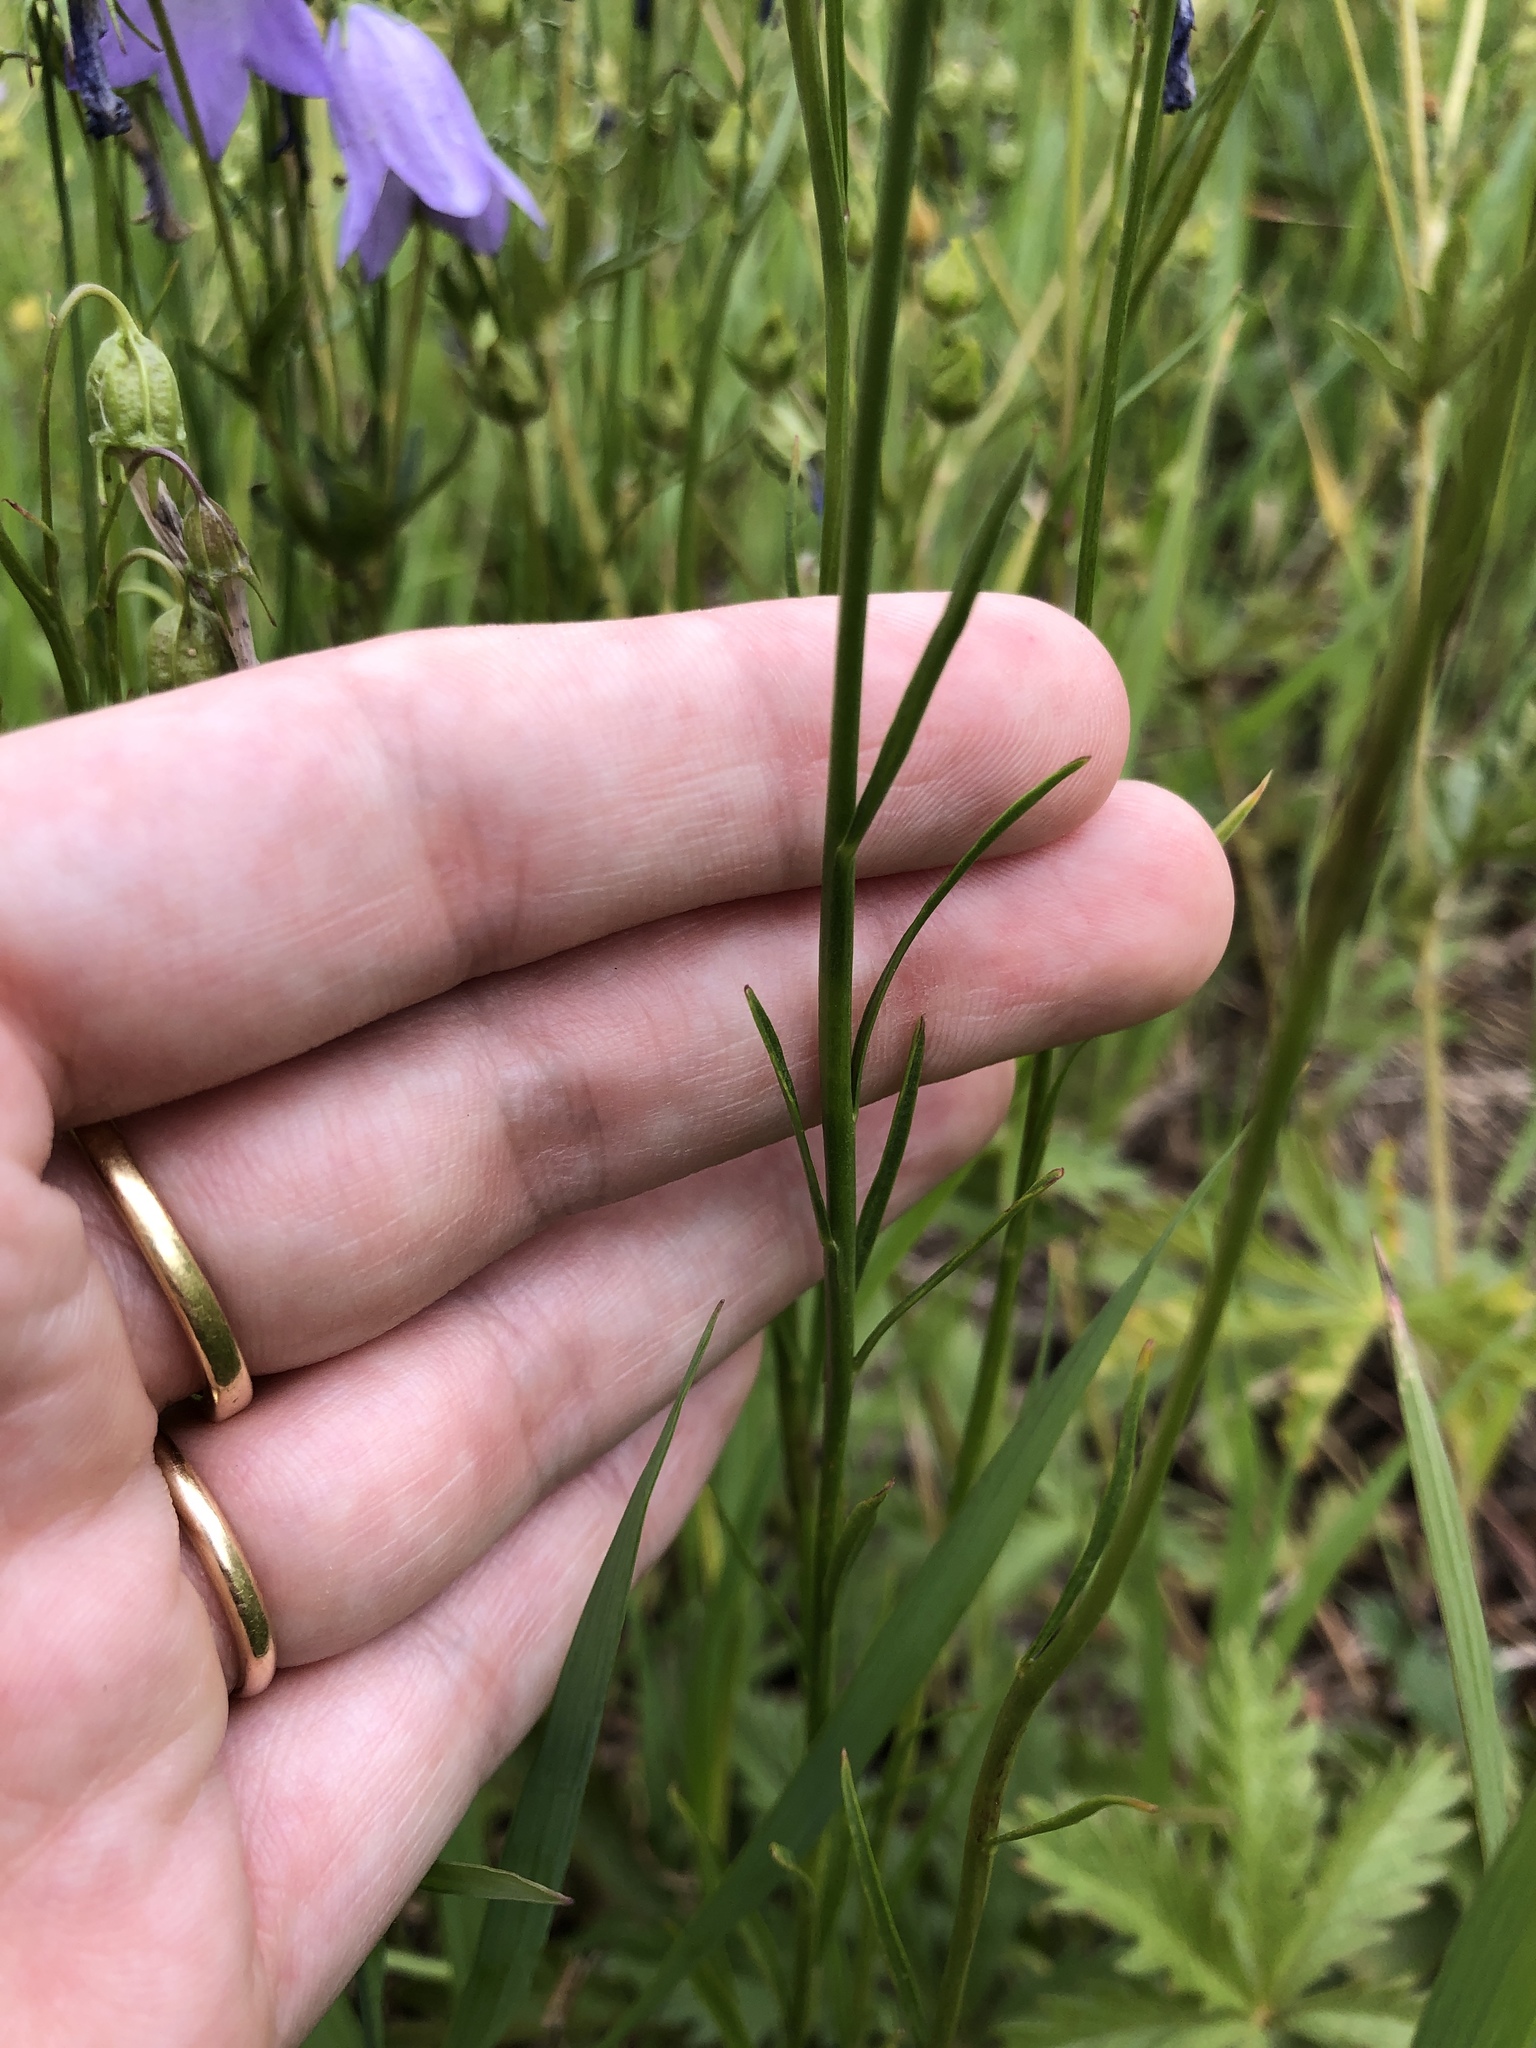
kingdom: Plantae
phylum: Tracheophyta
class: Magnoliopsida
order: Asterales
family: Campanulaceae
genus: Campanula
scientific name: Campanula petiolata
